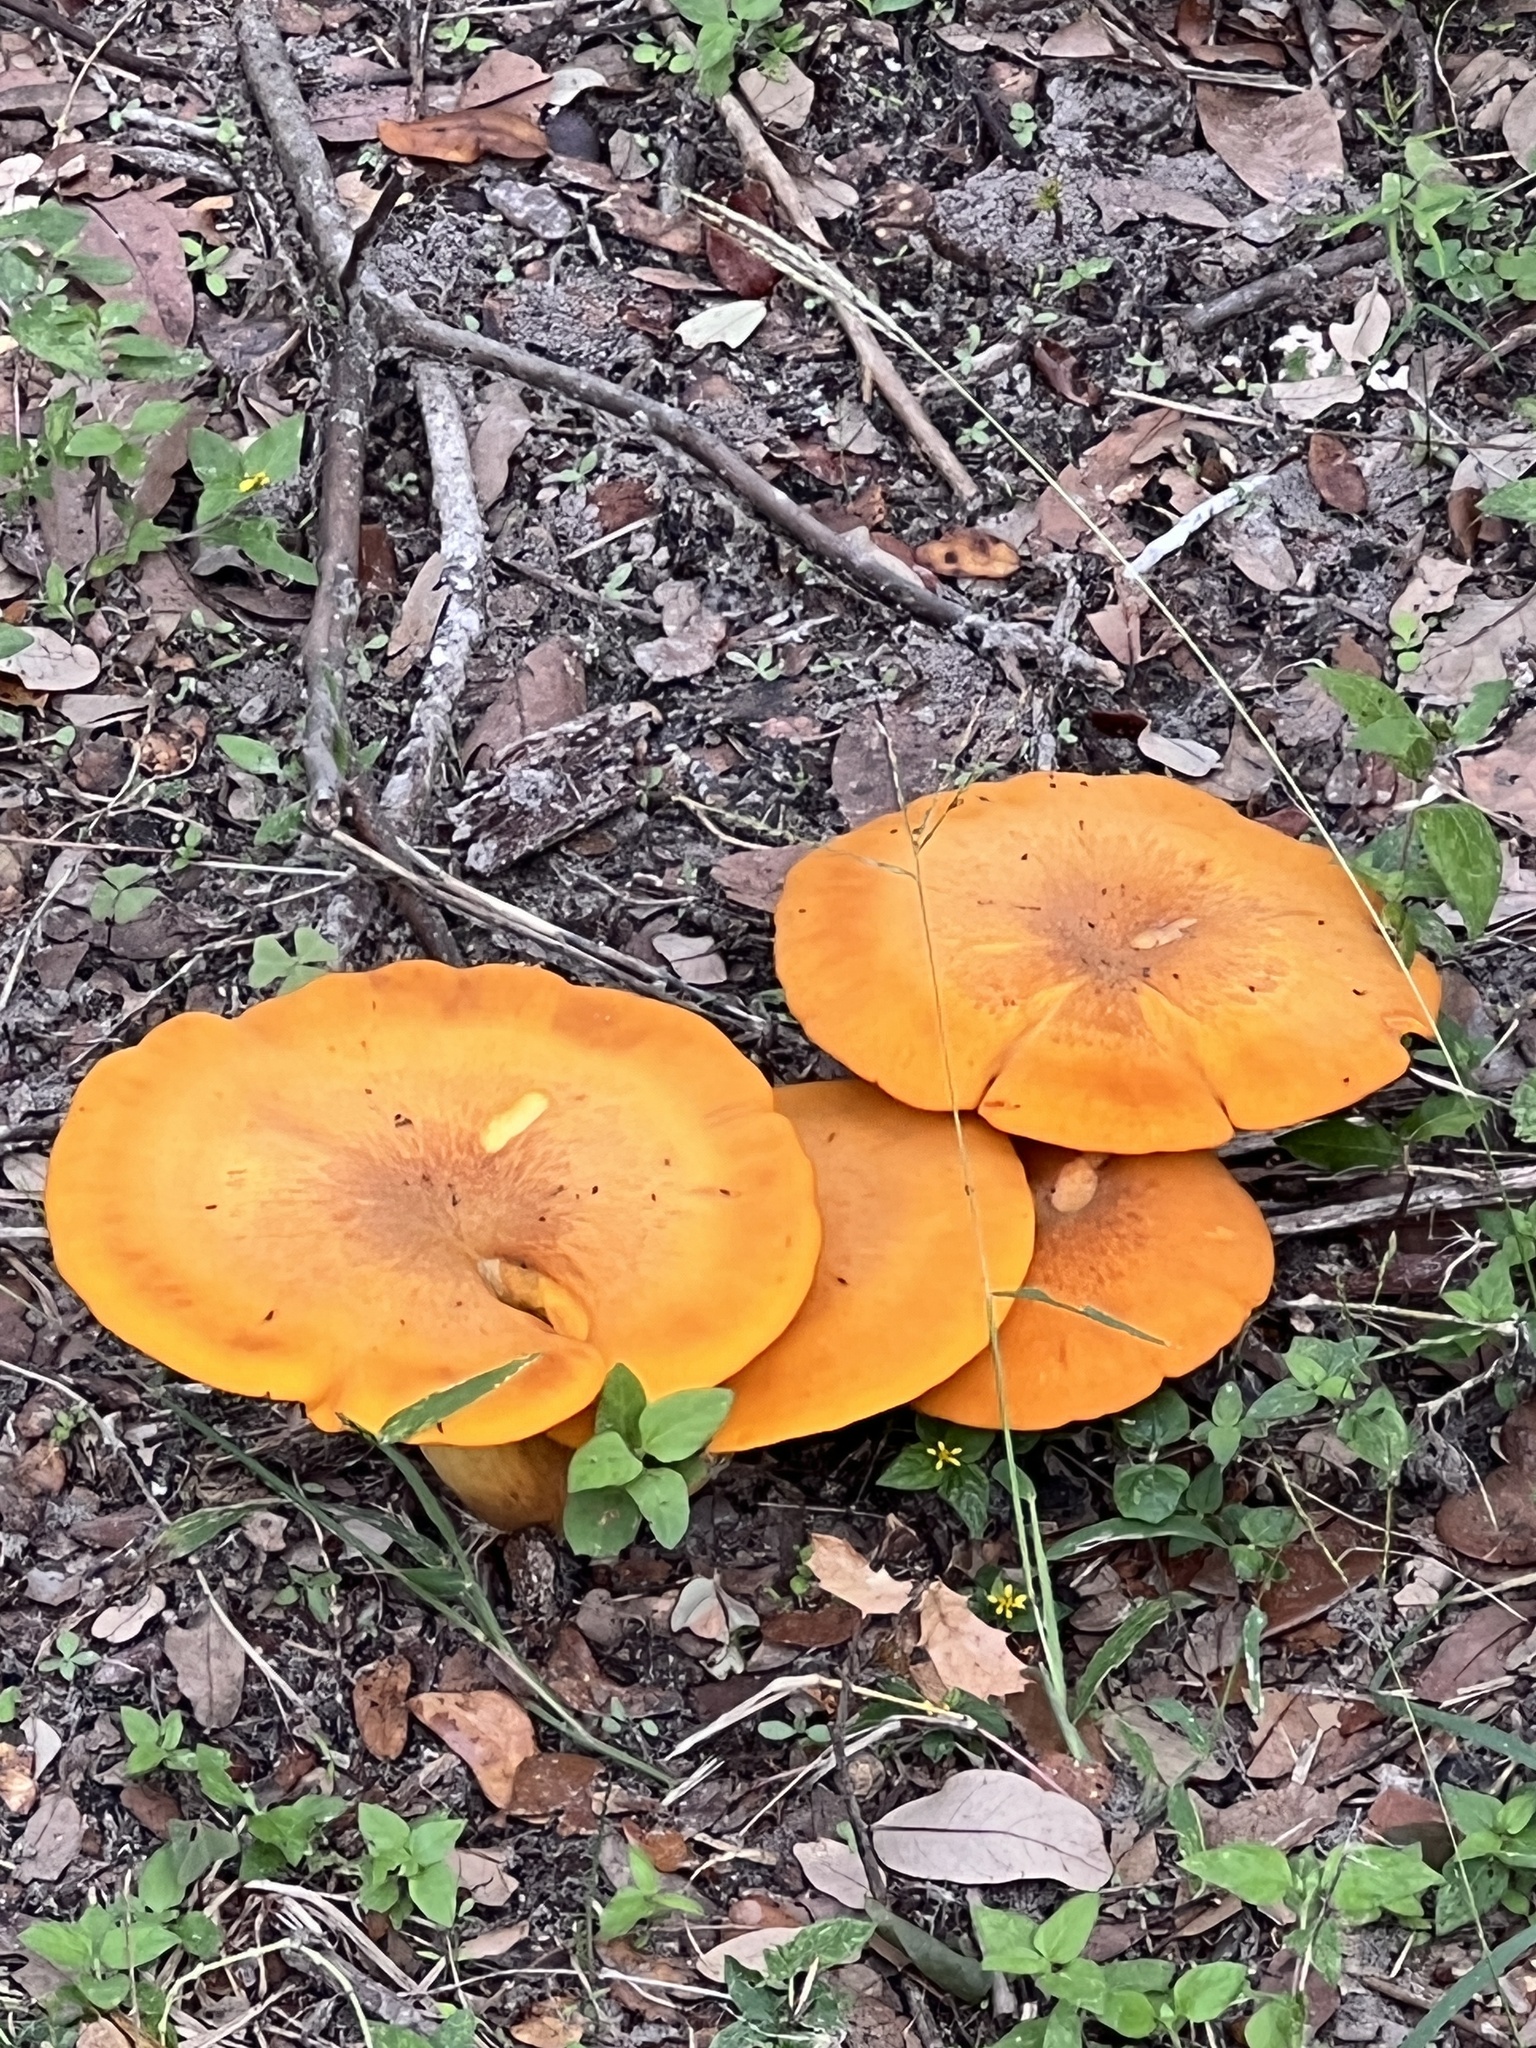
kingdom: Fungi
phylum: Basidiomycota
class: Agaricomycetes
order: Agaricales
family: Omphalotaceae
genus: Omphalotus
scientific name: Omphalotus subilludens
